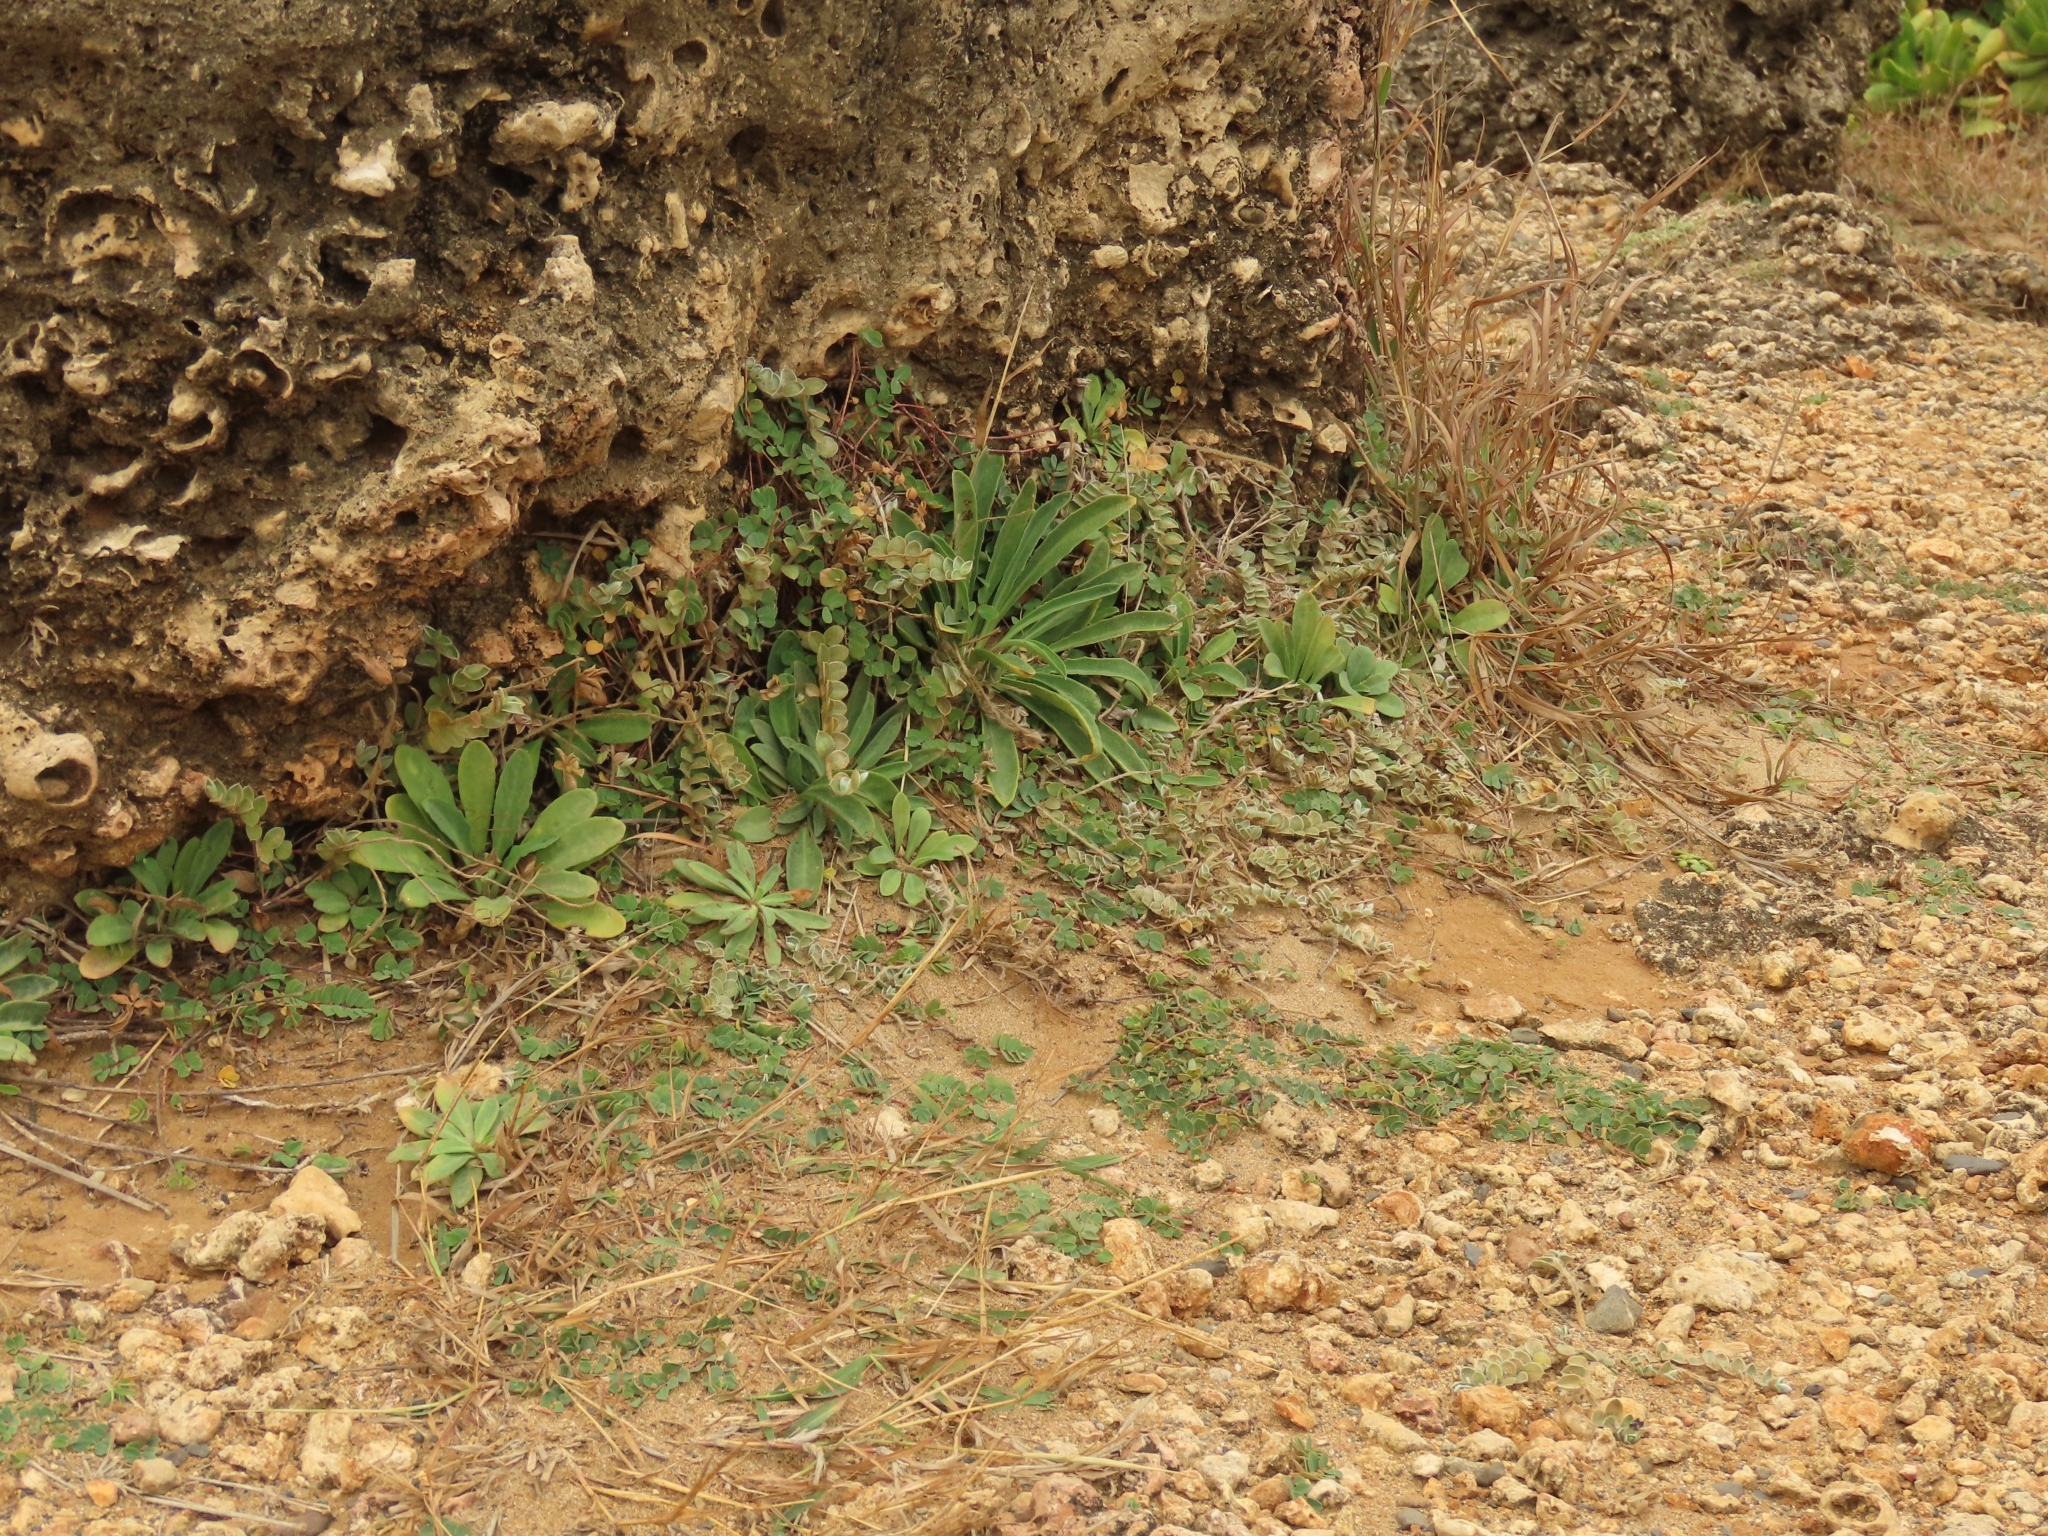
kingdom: Plantae
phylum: Tracheophyta
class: Magnoliopsida
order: Malpighiales
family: Euphorbiaceae
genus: Euphorbia
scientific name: Euphorbia garanbiensis
